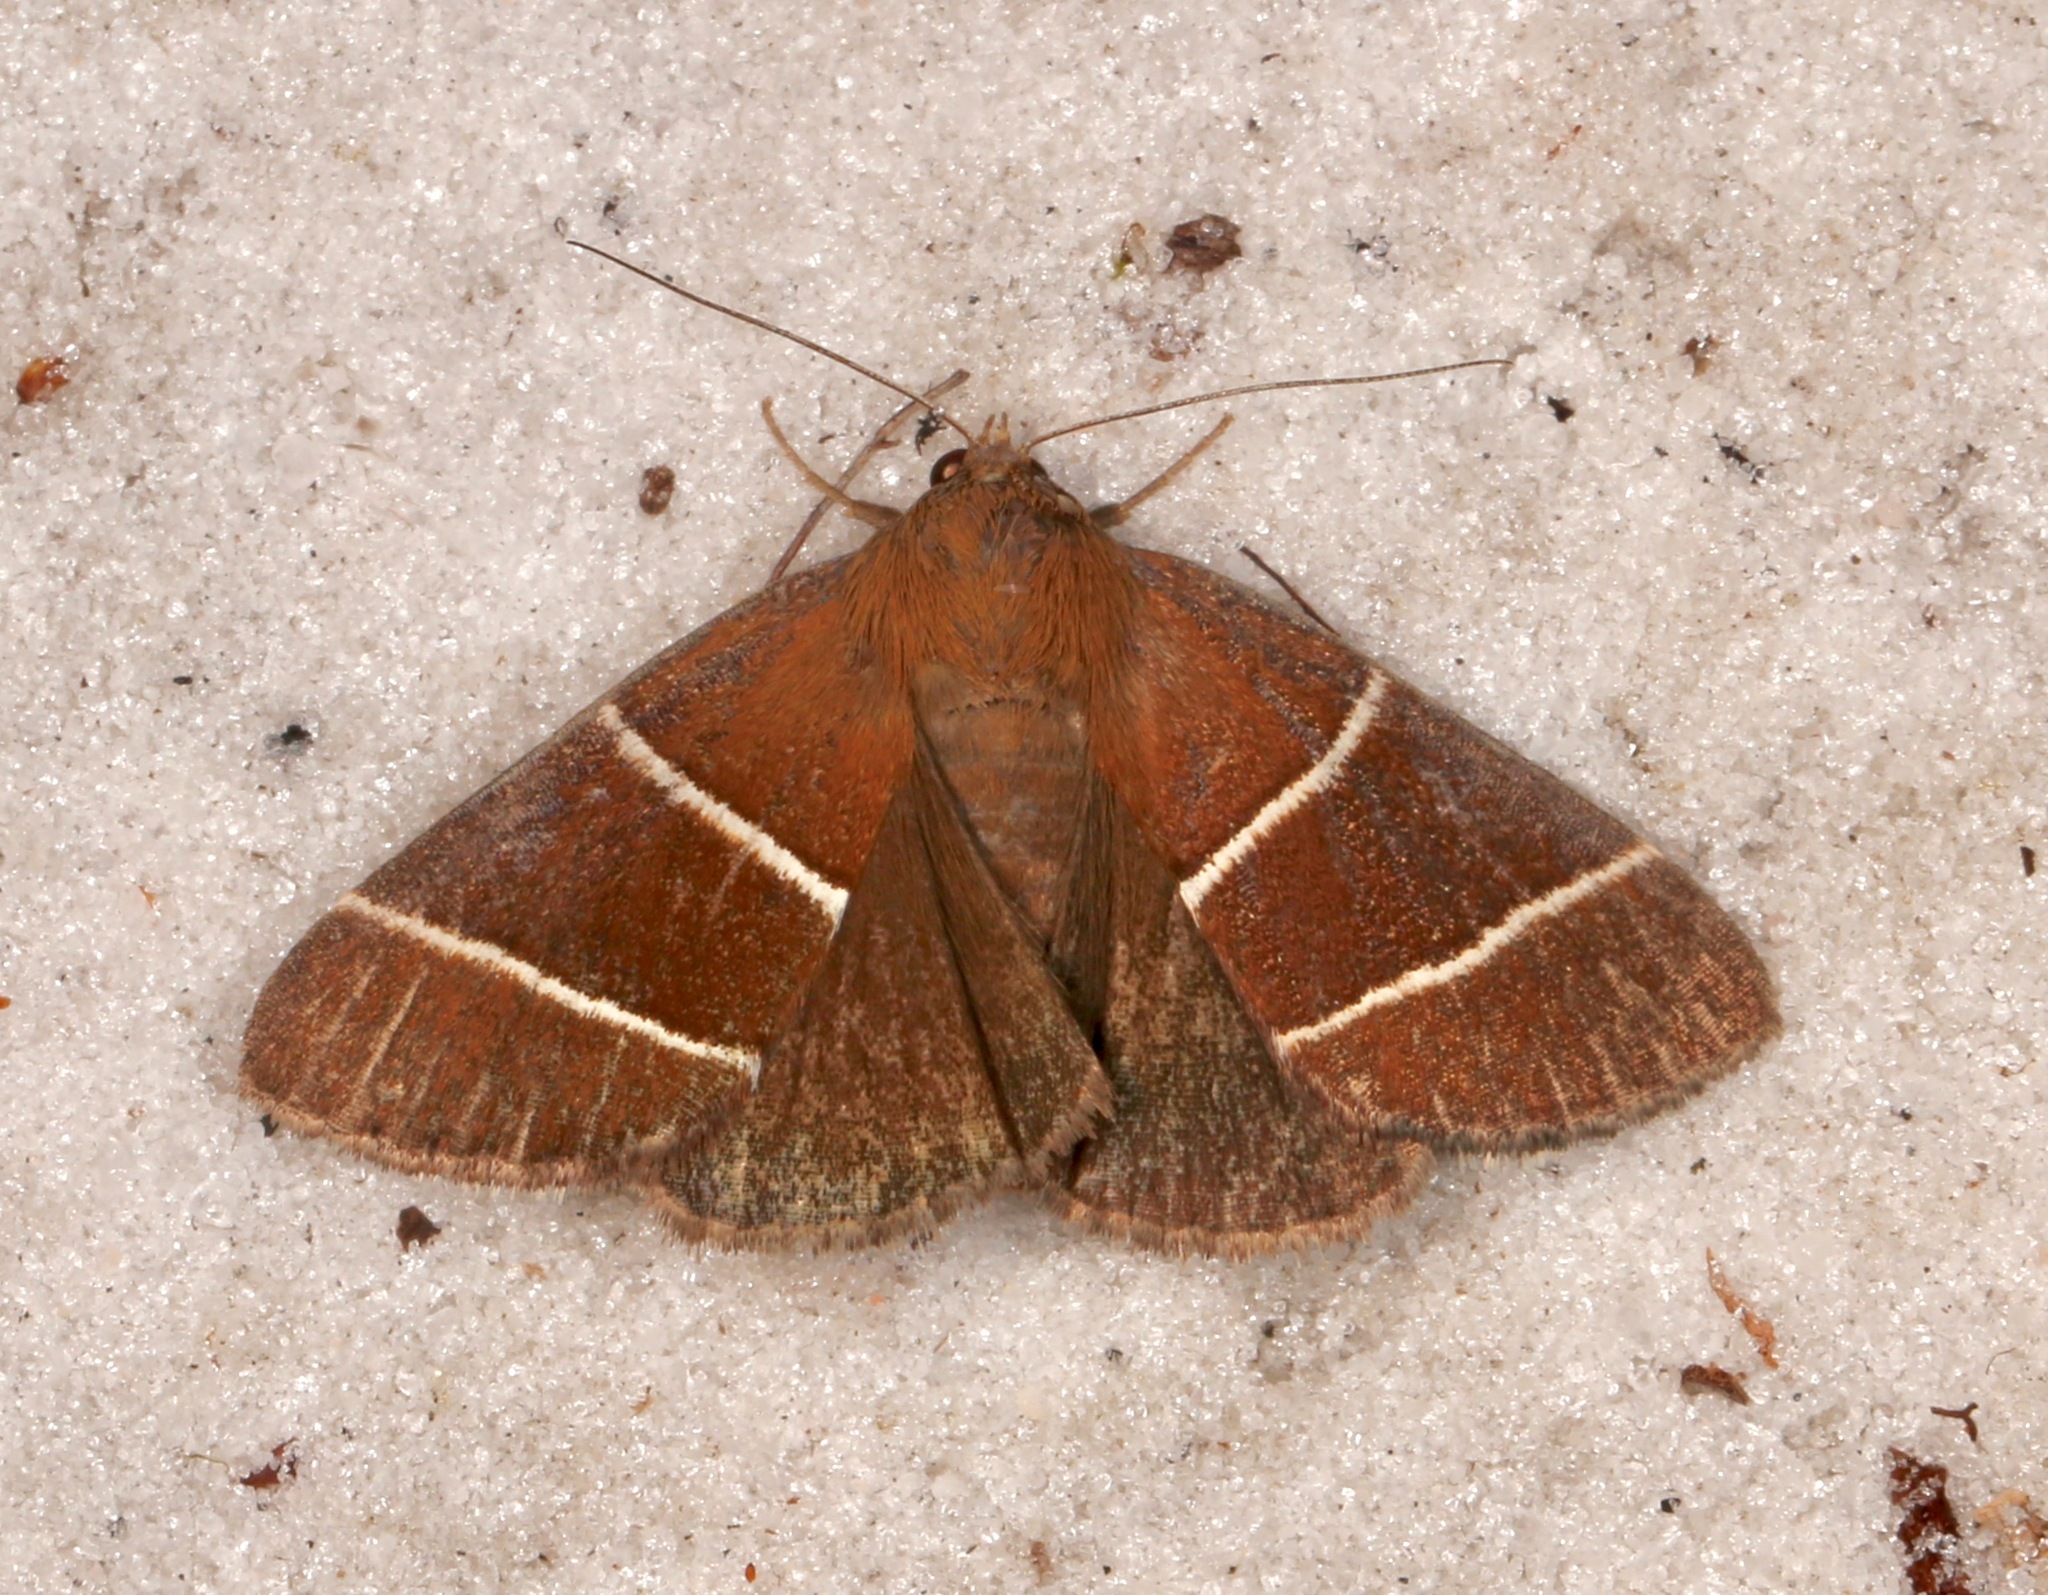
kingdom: Animalia
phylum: Arthropoda
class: Insecta
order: Lepidoptera
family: Erebidae
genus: Argyrostrotis
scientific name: Argyrostrotis quadrifilaris
